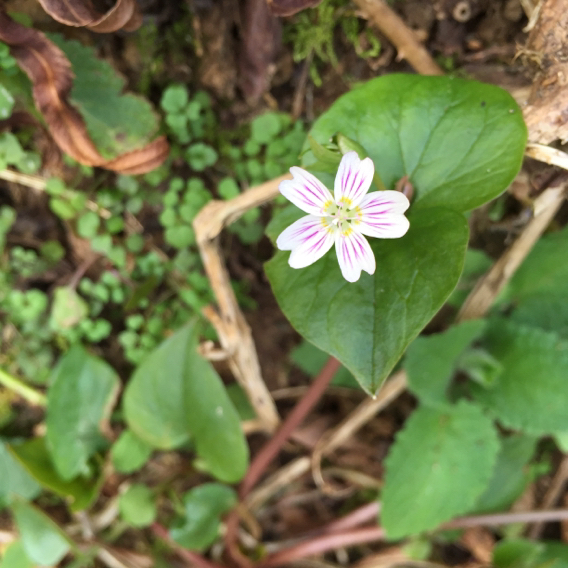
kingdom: Plantae
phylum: Tracheophyta
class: Magnoliopsida
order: Caryophyllales
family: Montiaceae
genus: Claytonia
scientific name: Claytonia sibirica
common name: Pink purslane
